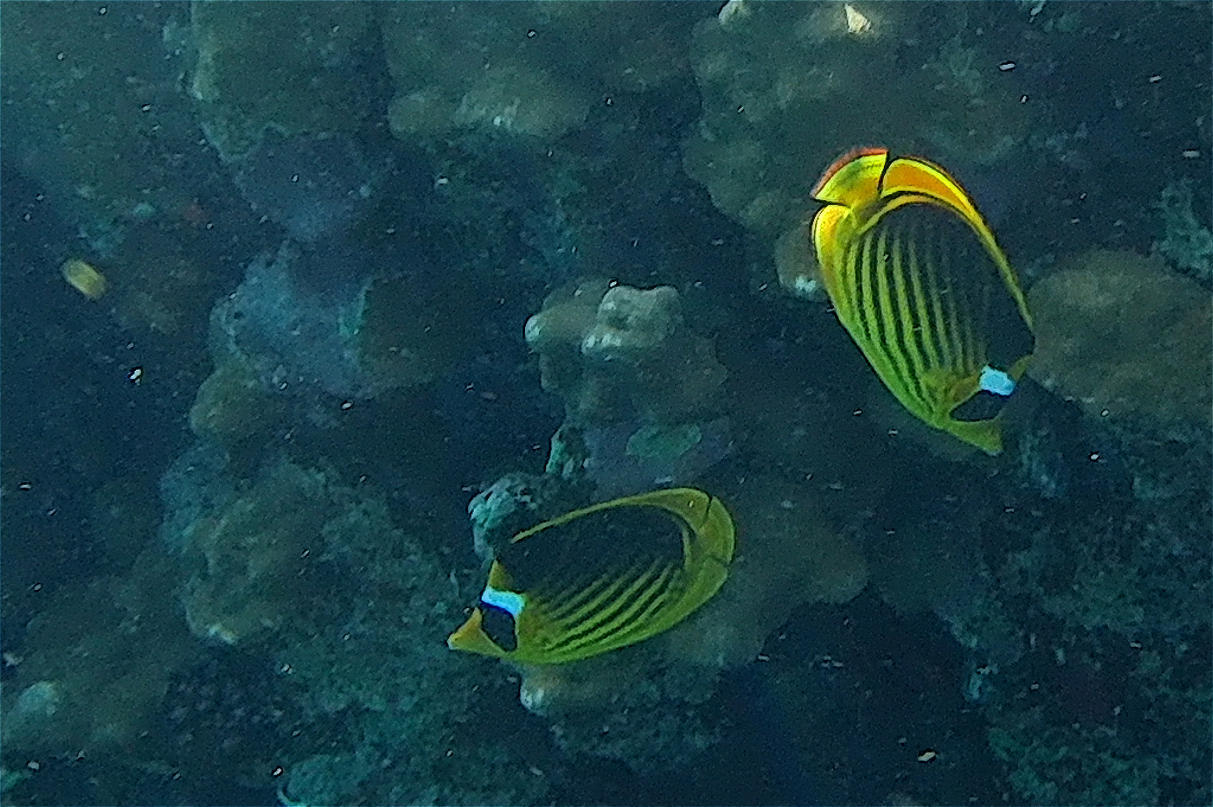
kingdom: Animalia
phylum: Chordata
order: Perciformes
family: Chaetodontidae
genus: Chaetodon
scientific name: Chaetodon fasciatus
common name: Diagonal butterflyfish
